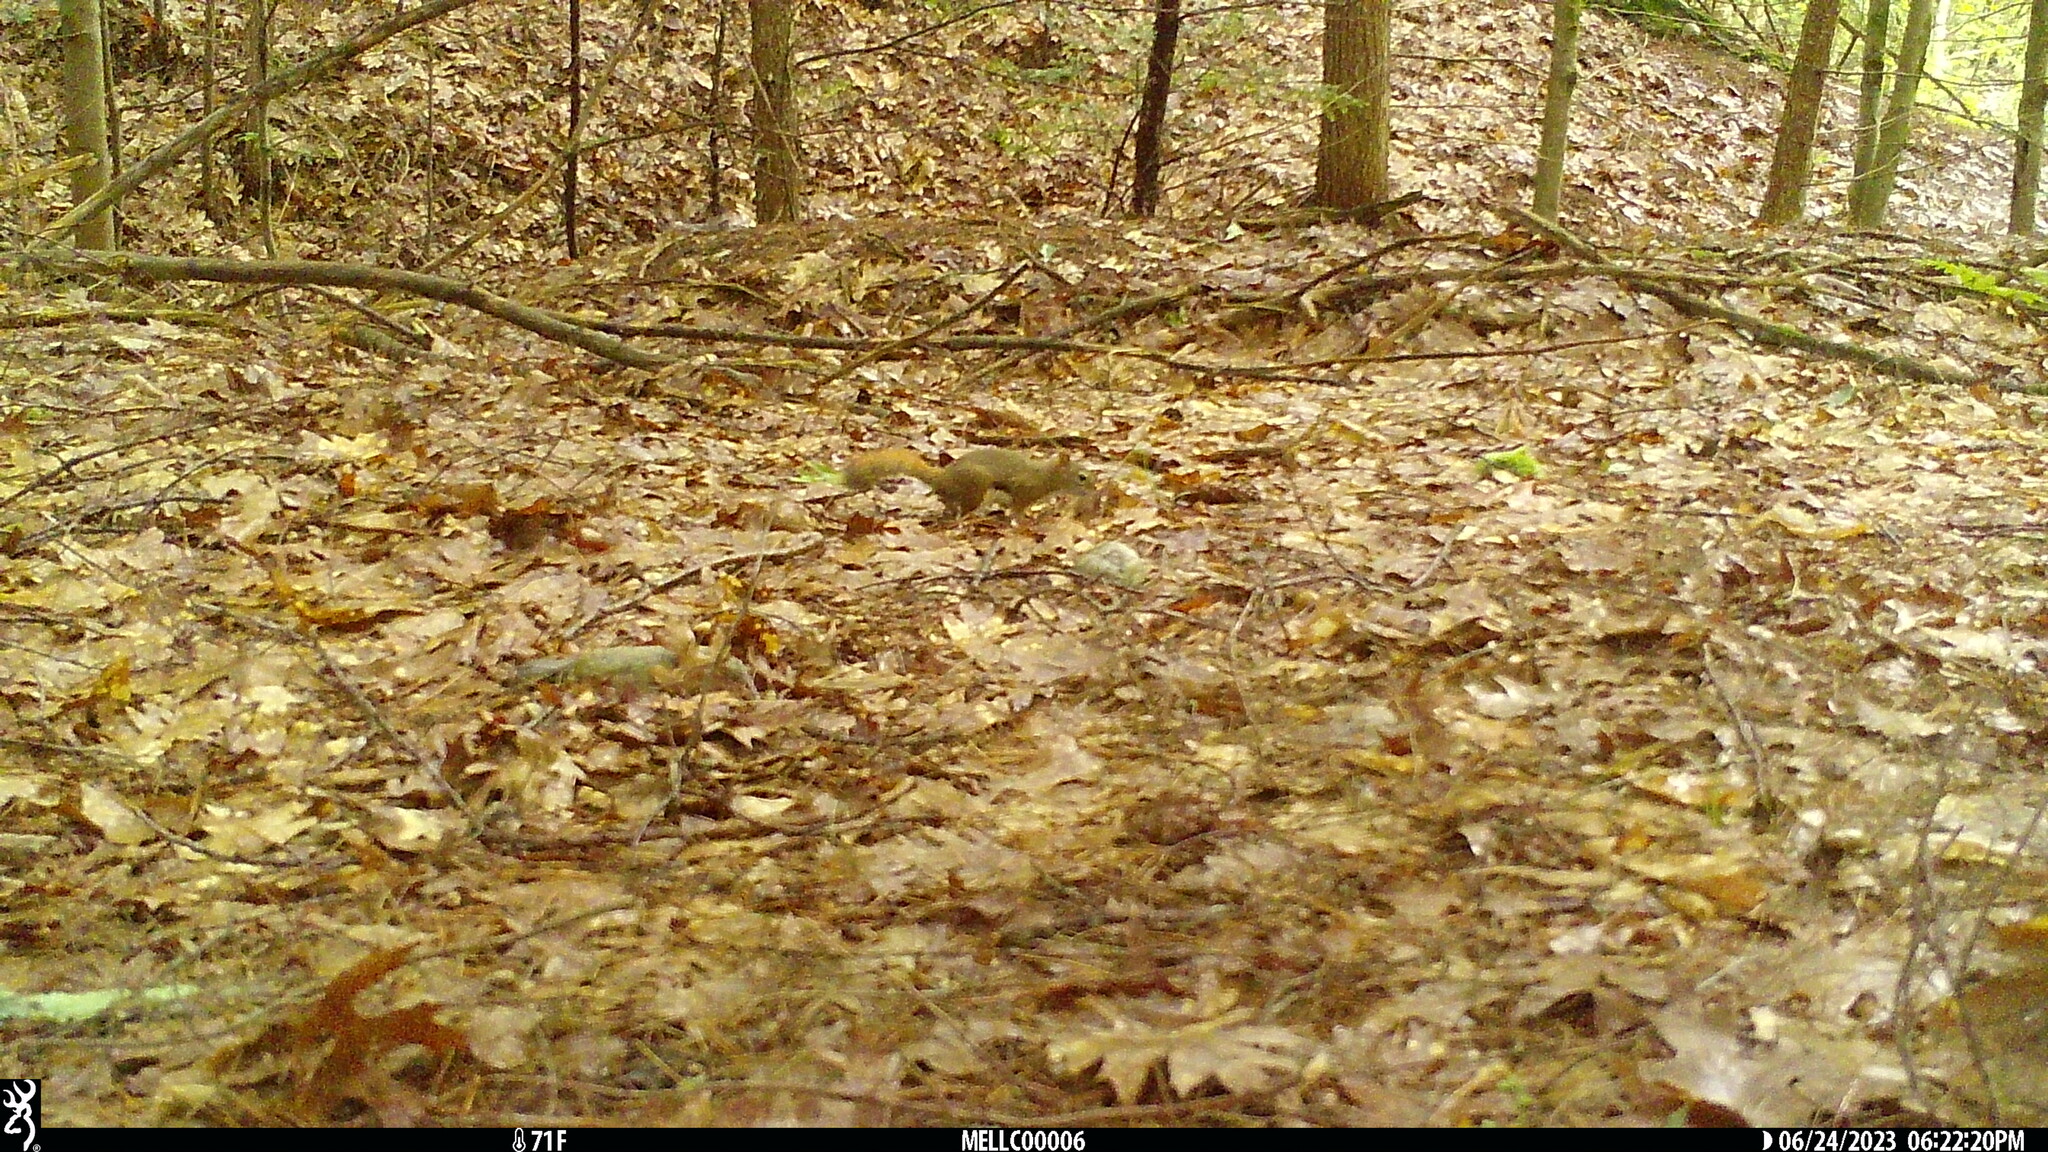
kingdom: Animalia
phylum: Chordata
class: Mammalia
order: Rodentia
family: Sciuridae
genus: Tamiasciurus
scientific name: Tamiasciurus hudsonicus
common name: Red squirrel
